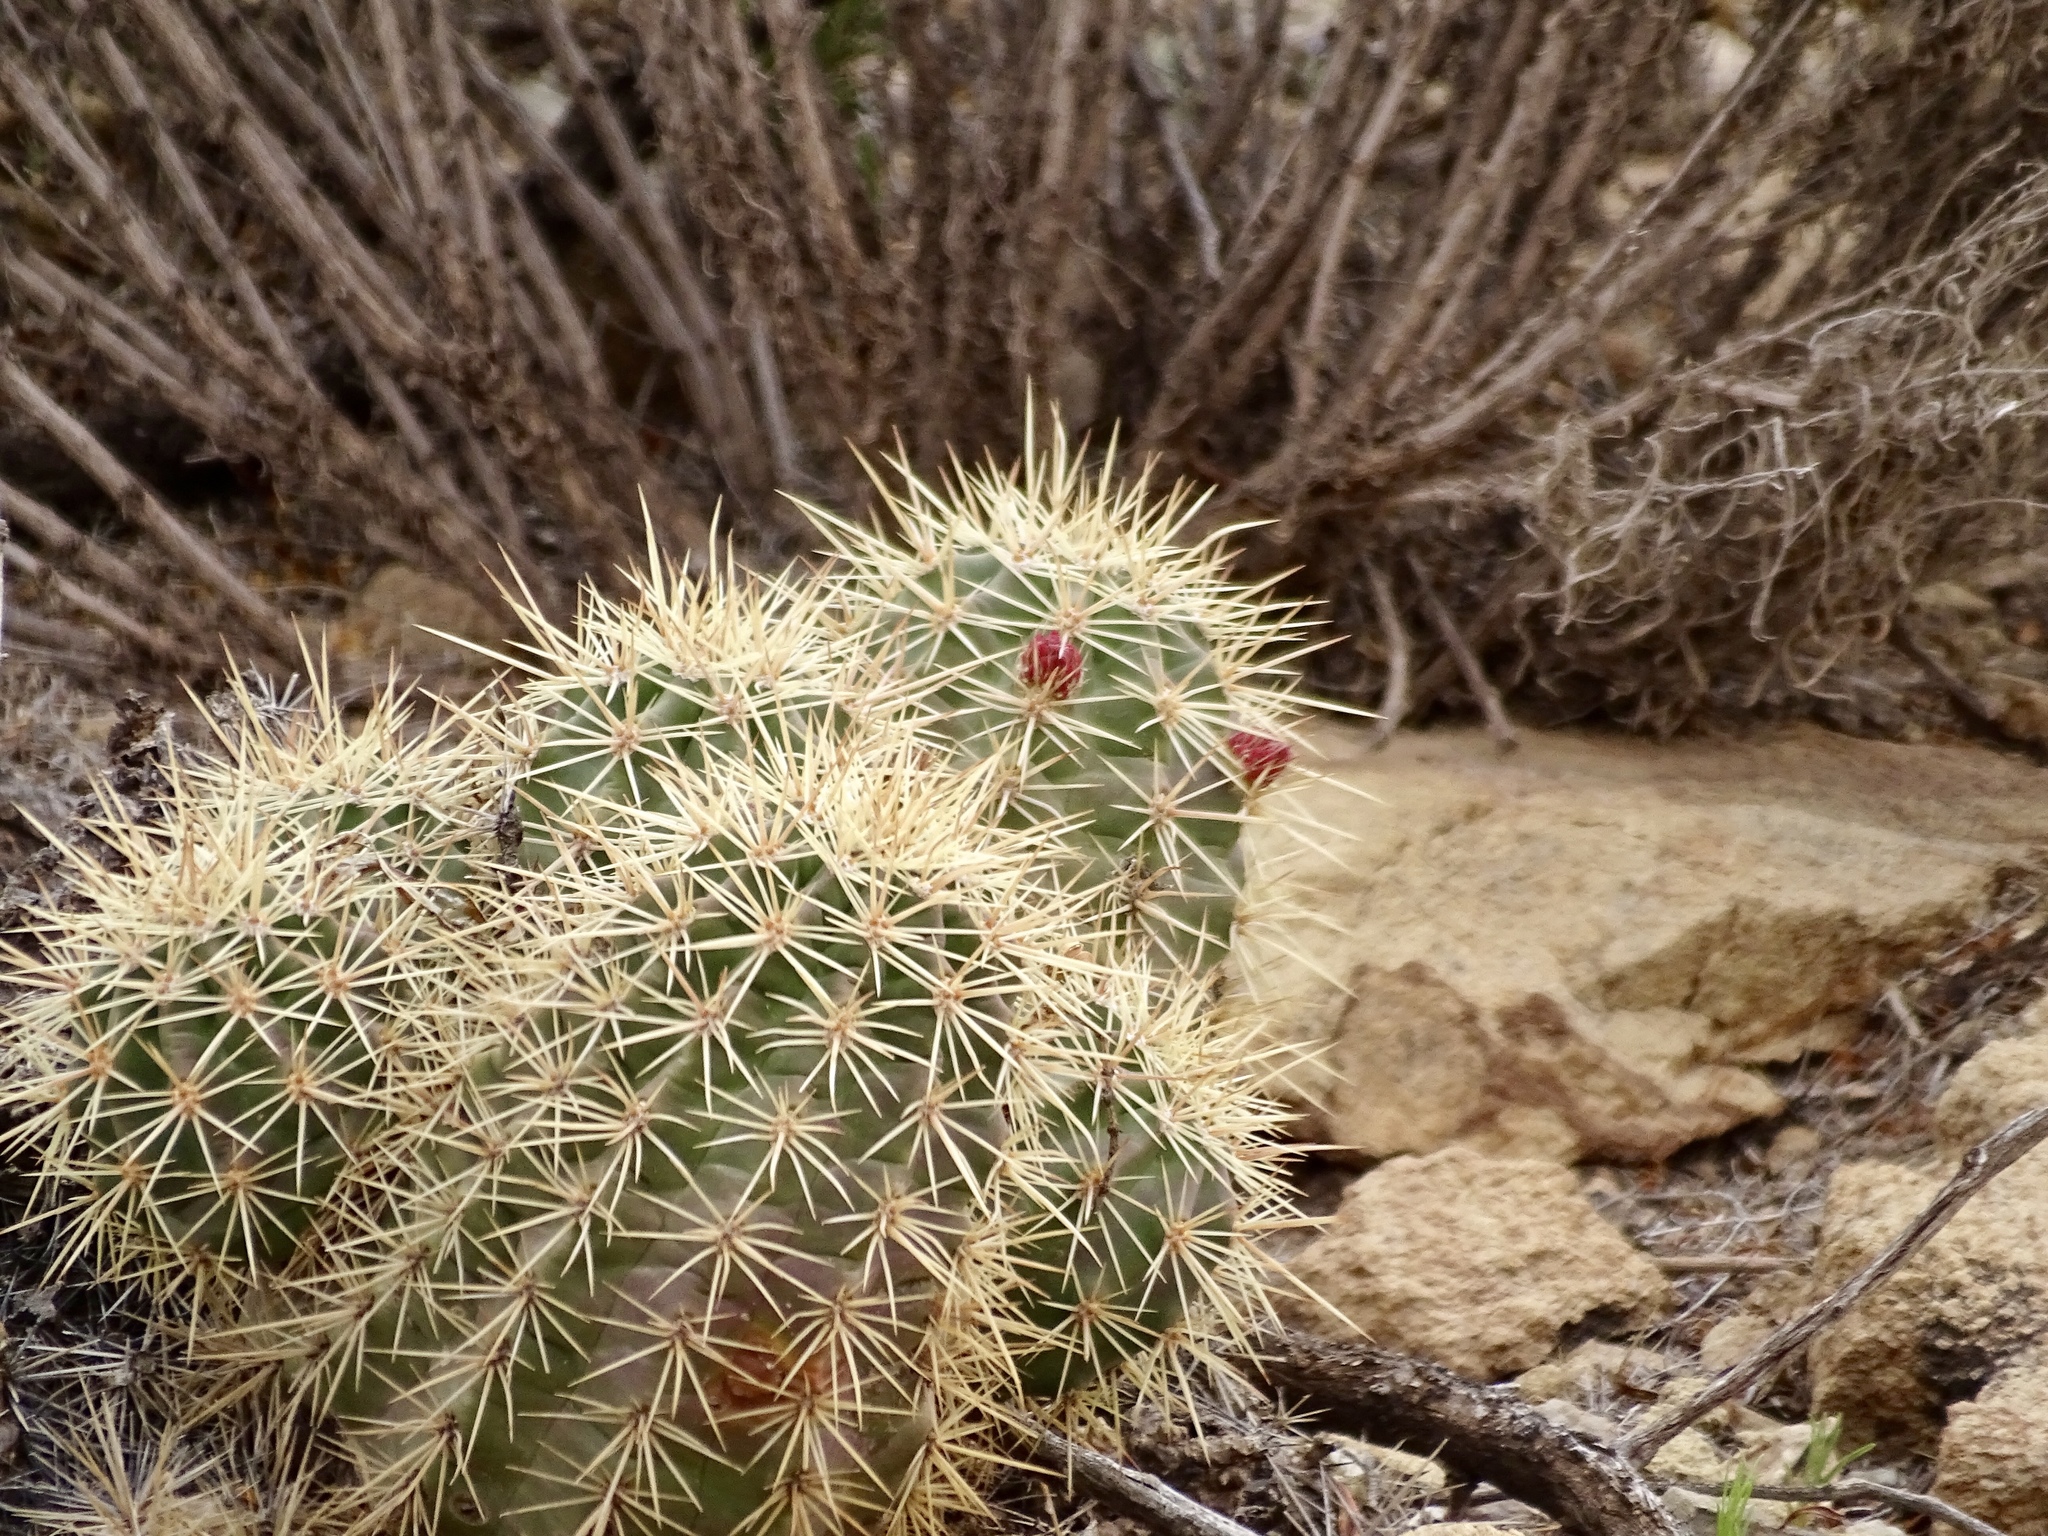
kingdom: Plantae
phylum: Tracheophyta
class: Magnoliopsida
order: Caryophyllales
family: Cactaceae
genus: Echinocereus
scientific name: Echinocereus coccineus
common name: Scarlet hedgehog cactus
